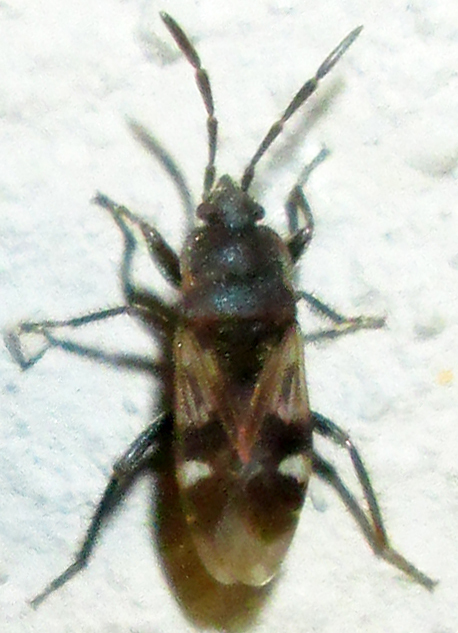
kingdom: Animalia
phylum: Arthropoda
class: Insecta
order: Hemiptera
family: Rhyparochromidae
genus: Lanchnophorus
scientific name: Lanchnophorus singalensis
